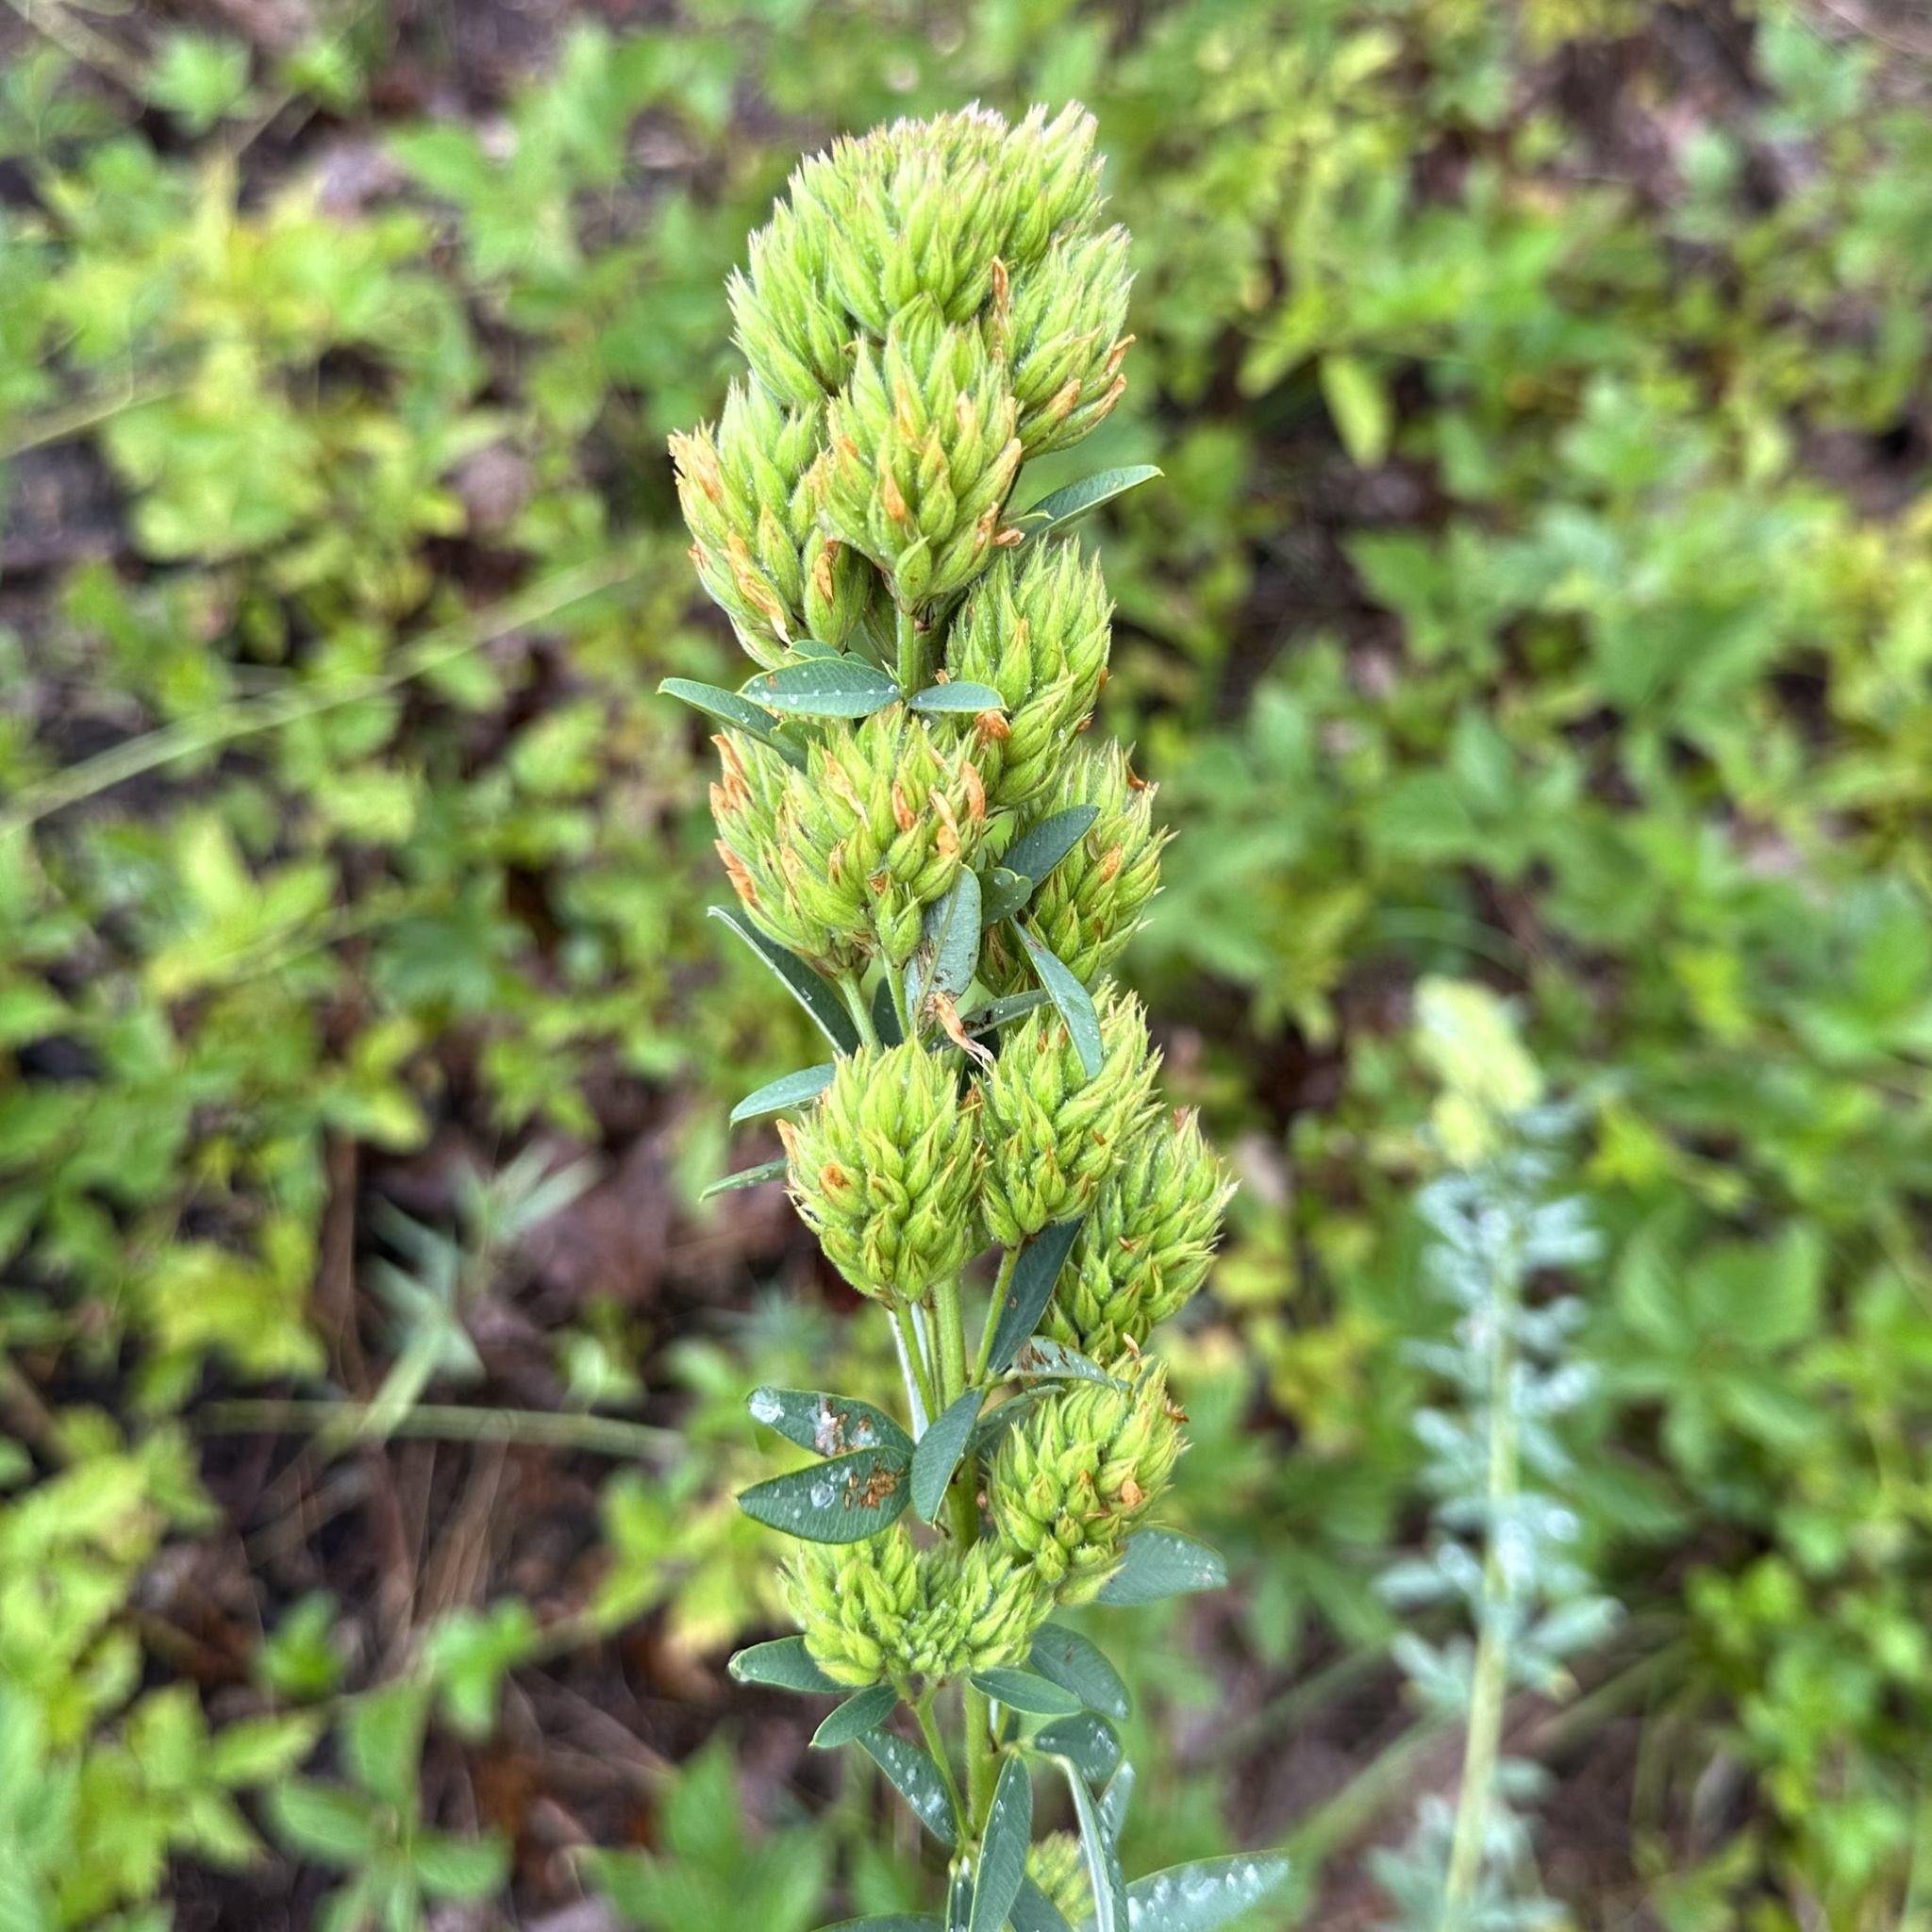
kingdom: Plantae
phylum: Tracheophyta
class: Magnoliopsida
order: Fabales
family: Fabaceae
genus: Lespedeza
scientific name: Lespedeza capitata
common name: Dusty clover
